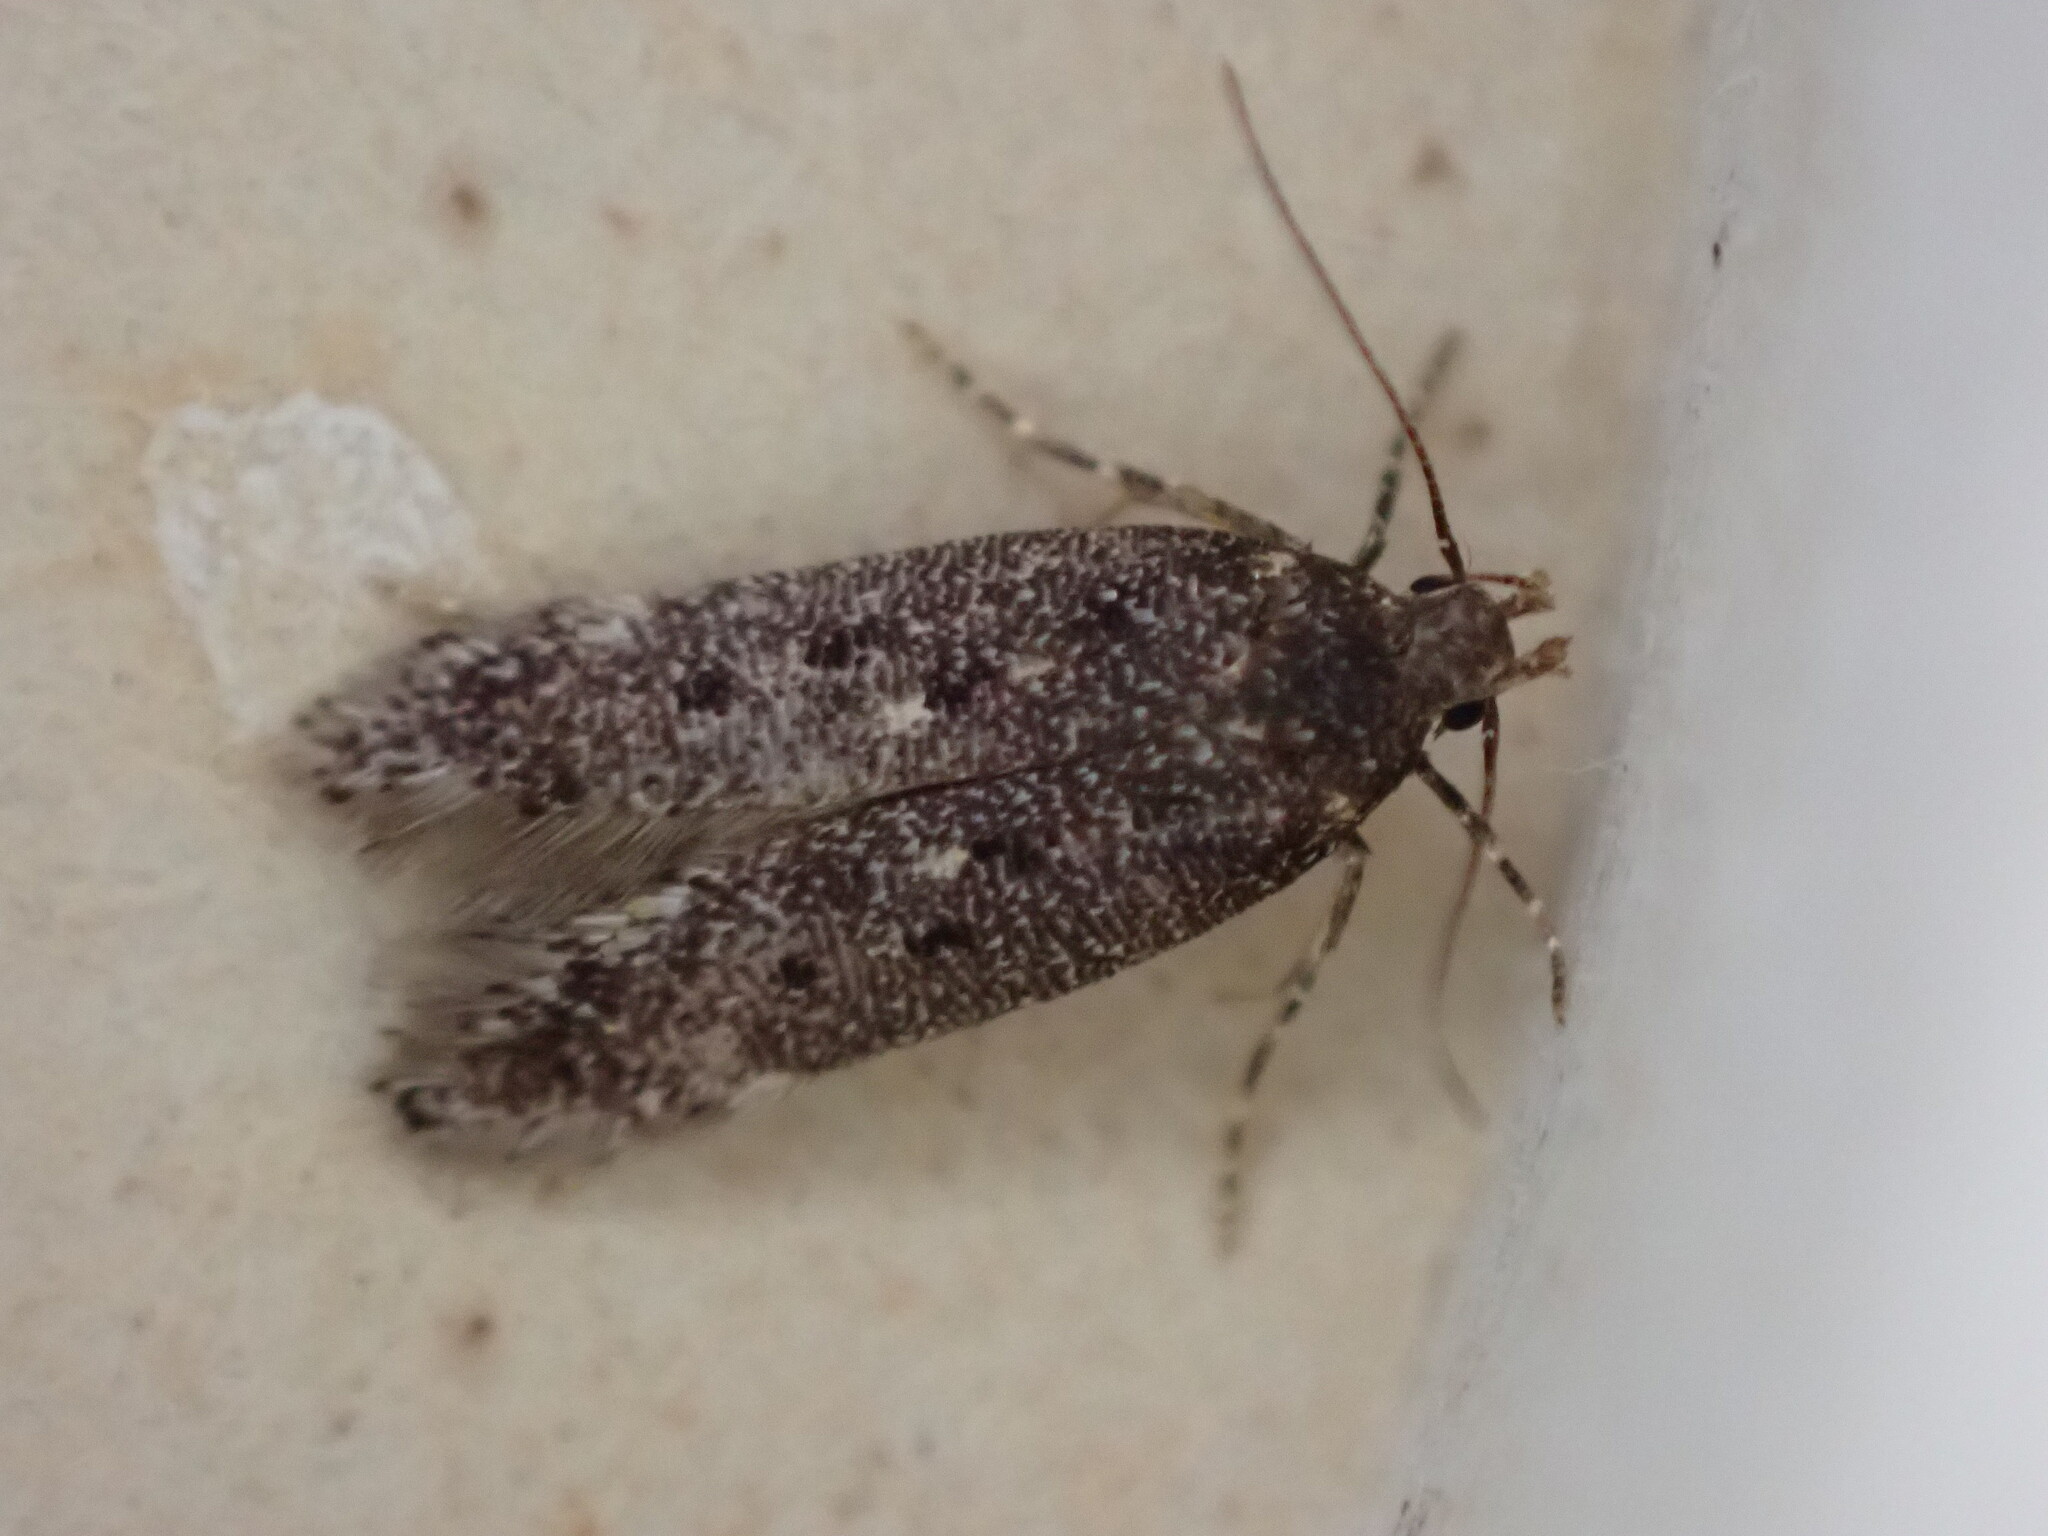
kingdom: Animalia
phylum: Arthropoda
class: Insecta
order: Lepidoptera
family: Gelechiidae
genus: Bryotropha
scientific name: Bryotropha affinis
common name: Dark groundling
